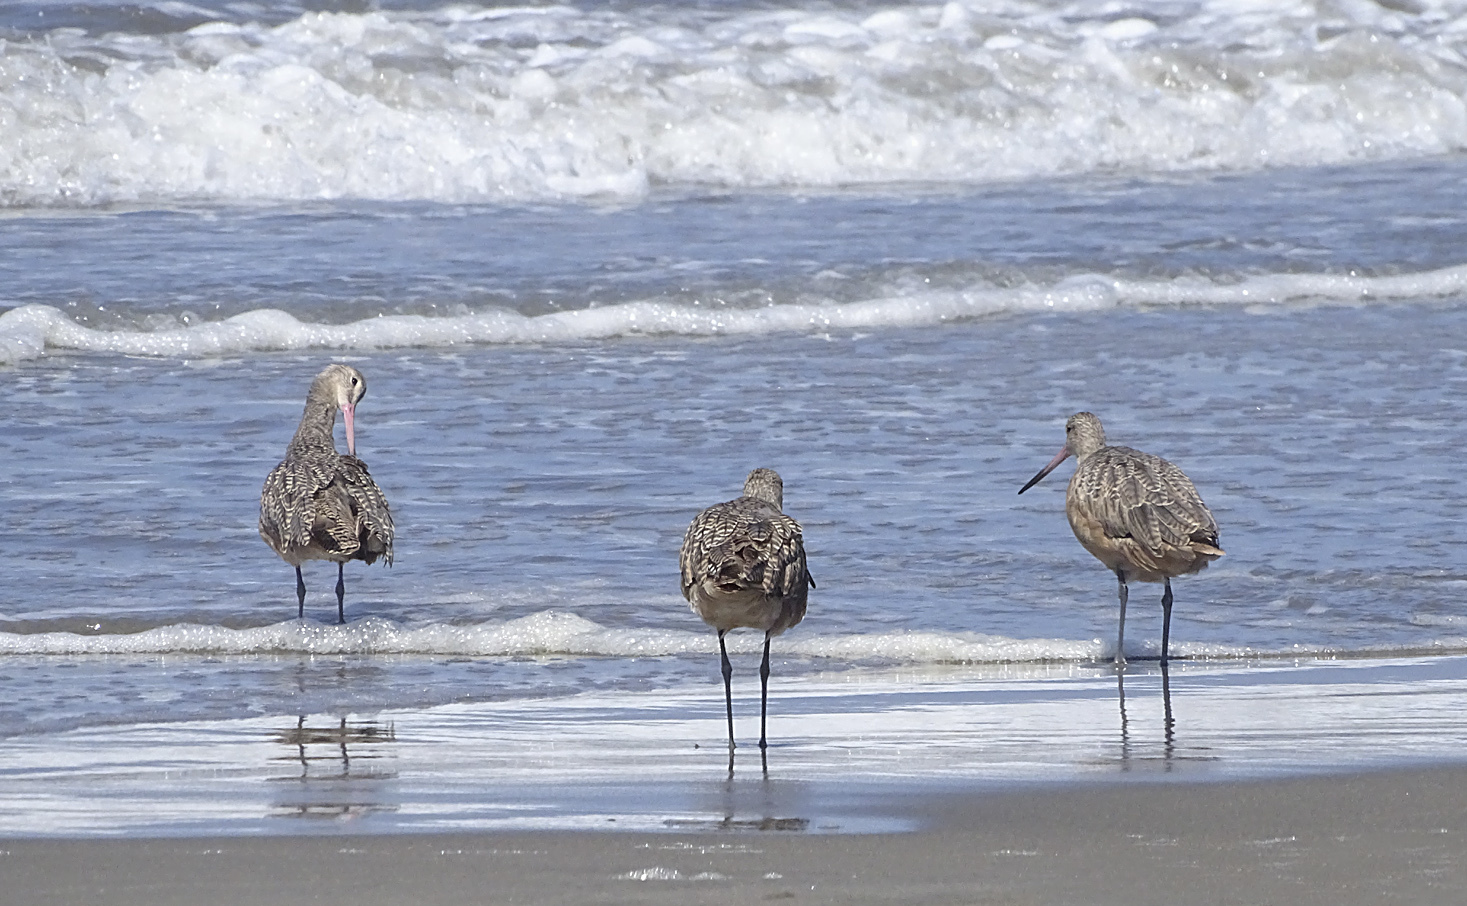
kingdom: Animalia
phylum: Chordata
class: Aves
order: Charadriiformes
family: Scolopacidae
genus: Limosa
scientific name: Limosa fedoa
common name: Marbled godwit
